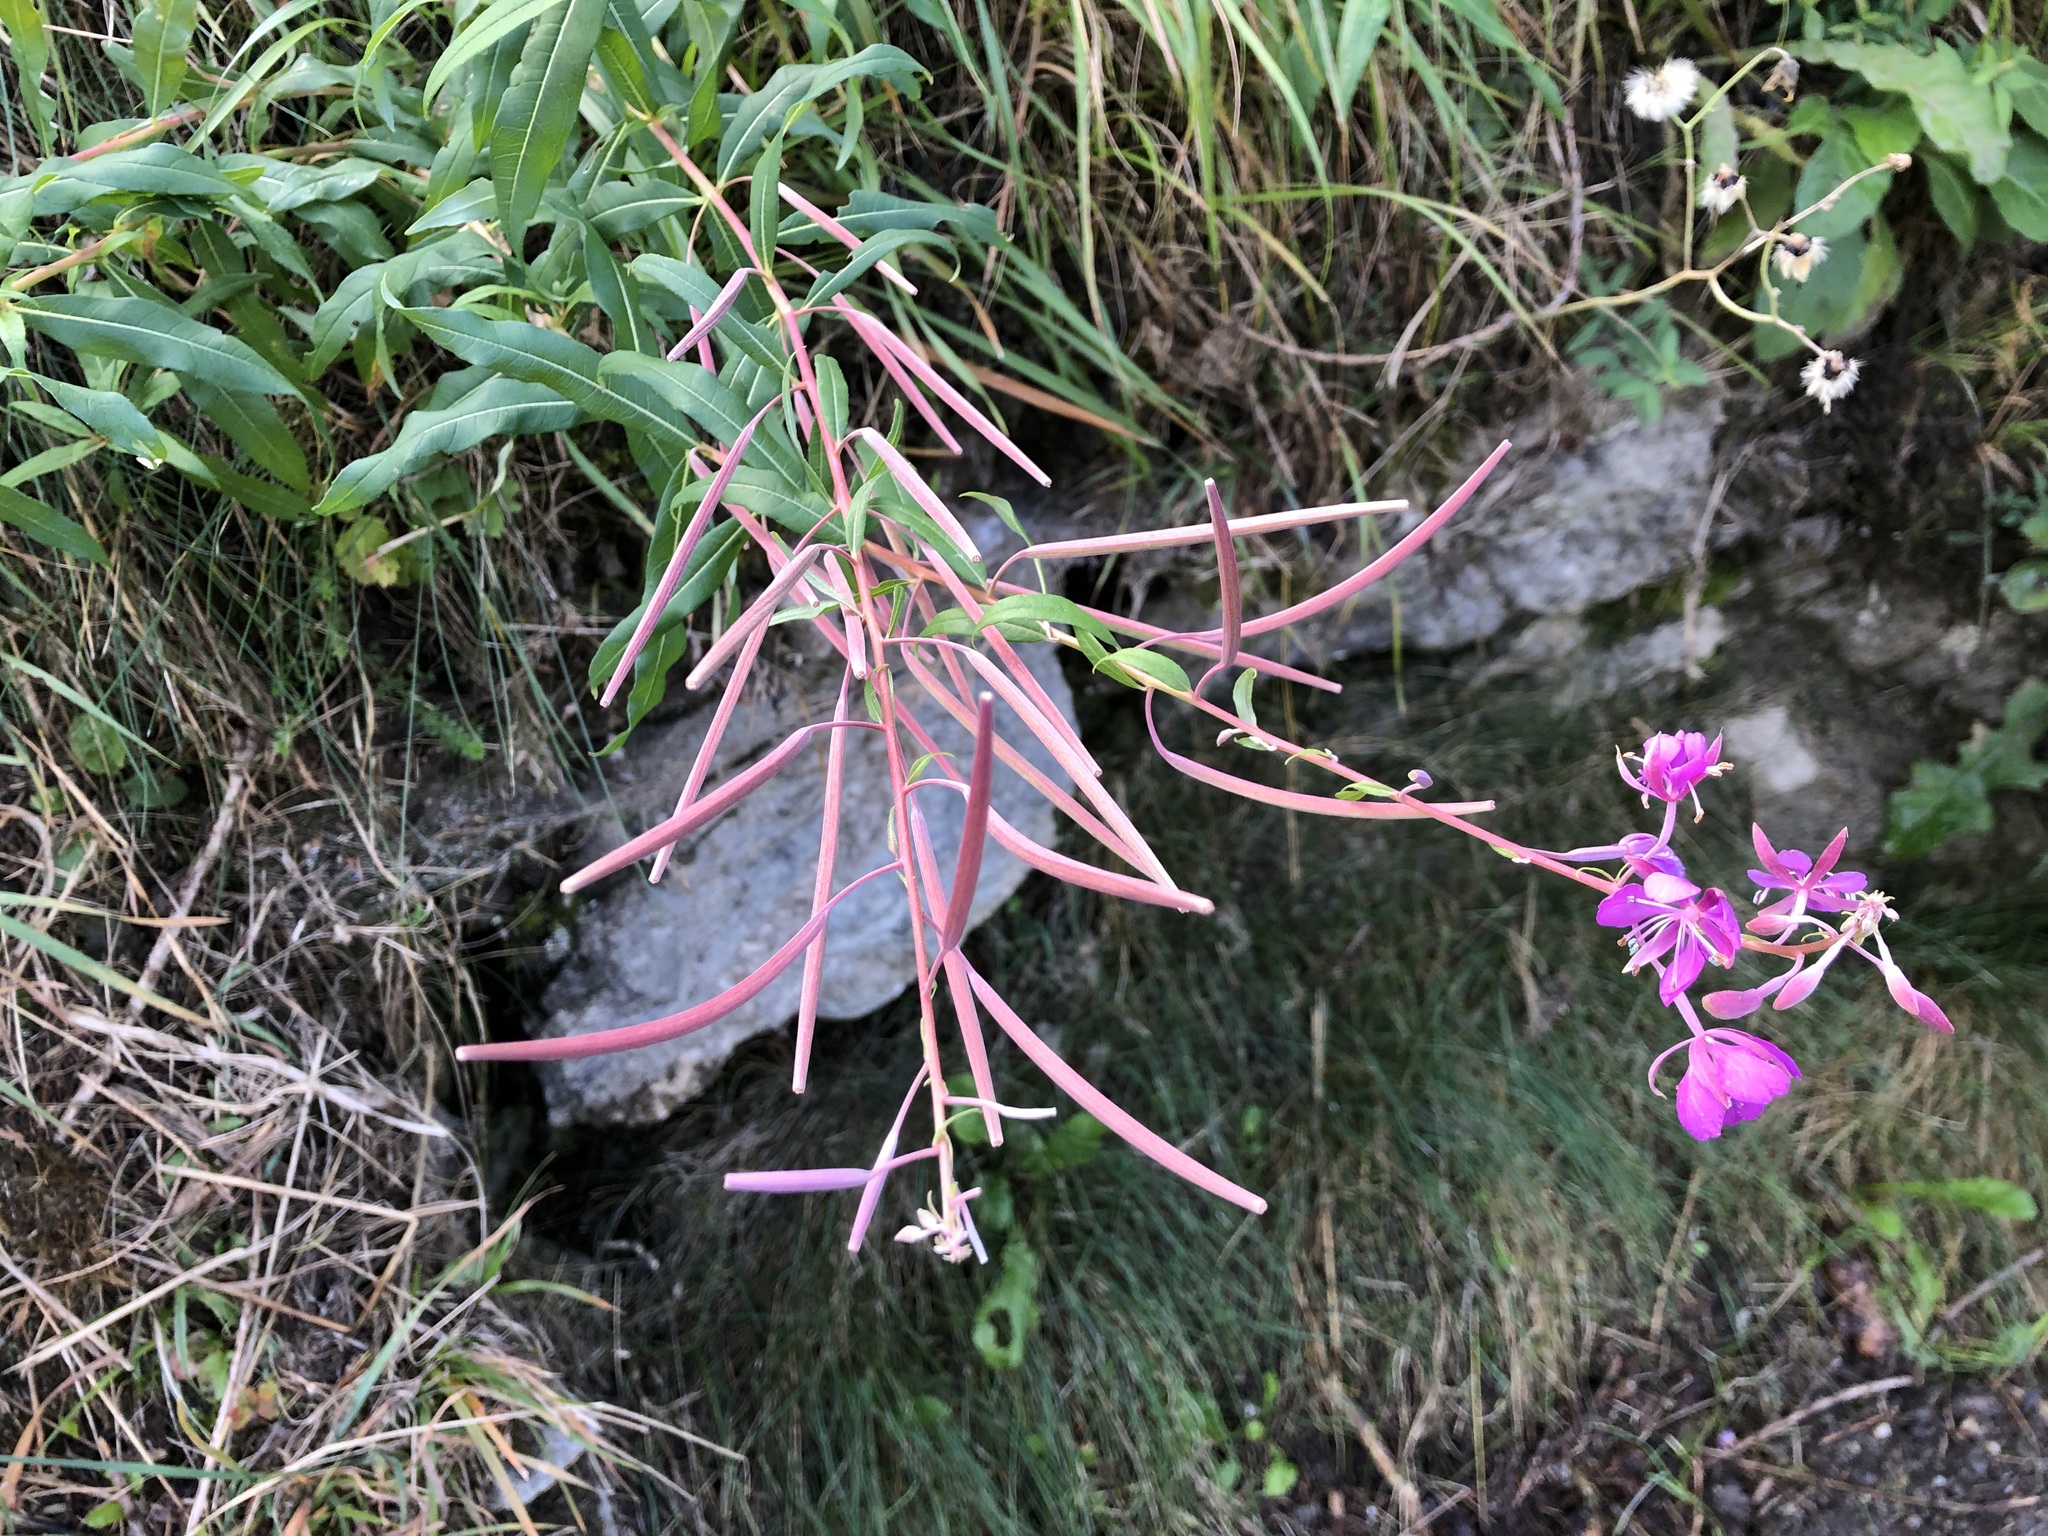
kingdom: Plantae
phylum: Tracheophyta
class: Magnoliopsida
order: Myrtales
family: Onagraceae
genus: Chamaenerion
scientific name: Chamaenerion angustifolium
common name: Fireweed
